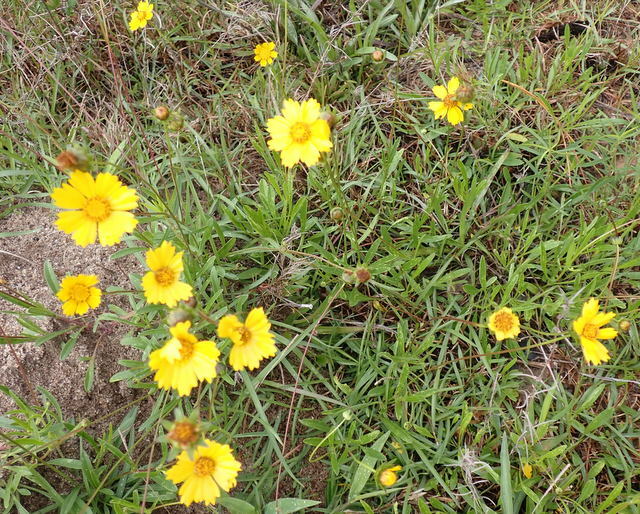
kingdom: Plantae
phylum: Tracheophyta
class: Magnoliopsida
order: Asterales
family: Asteraceae
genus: Coreopsis
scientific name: Coreopsis lanceolata
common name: Garden coreopsis
